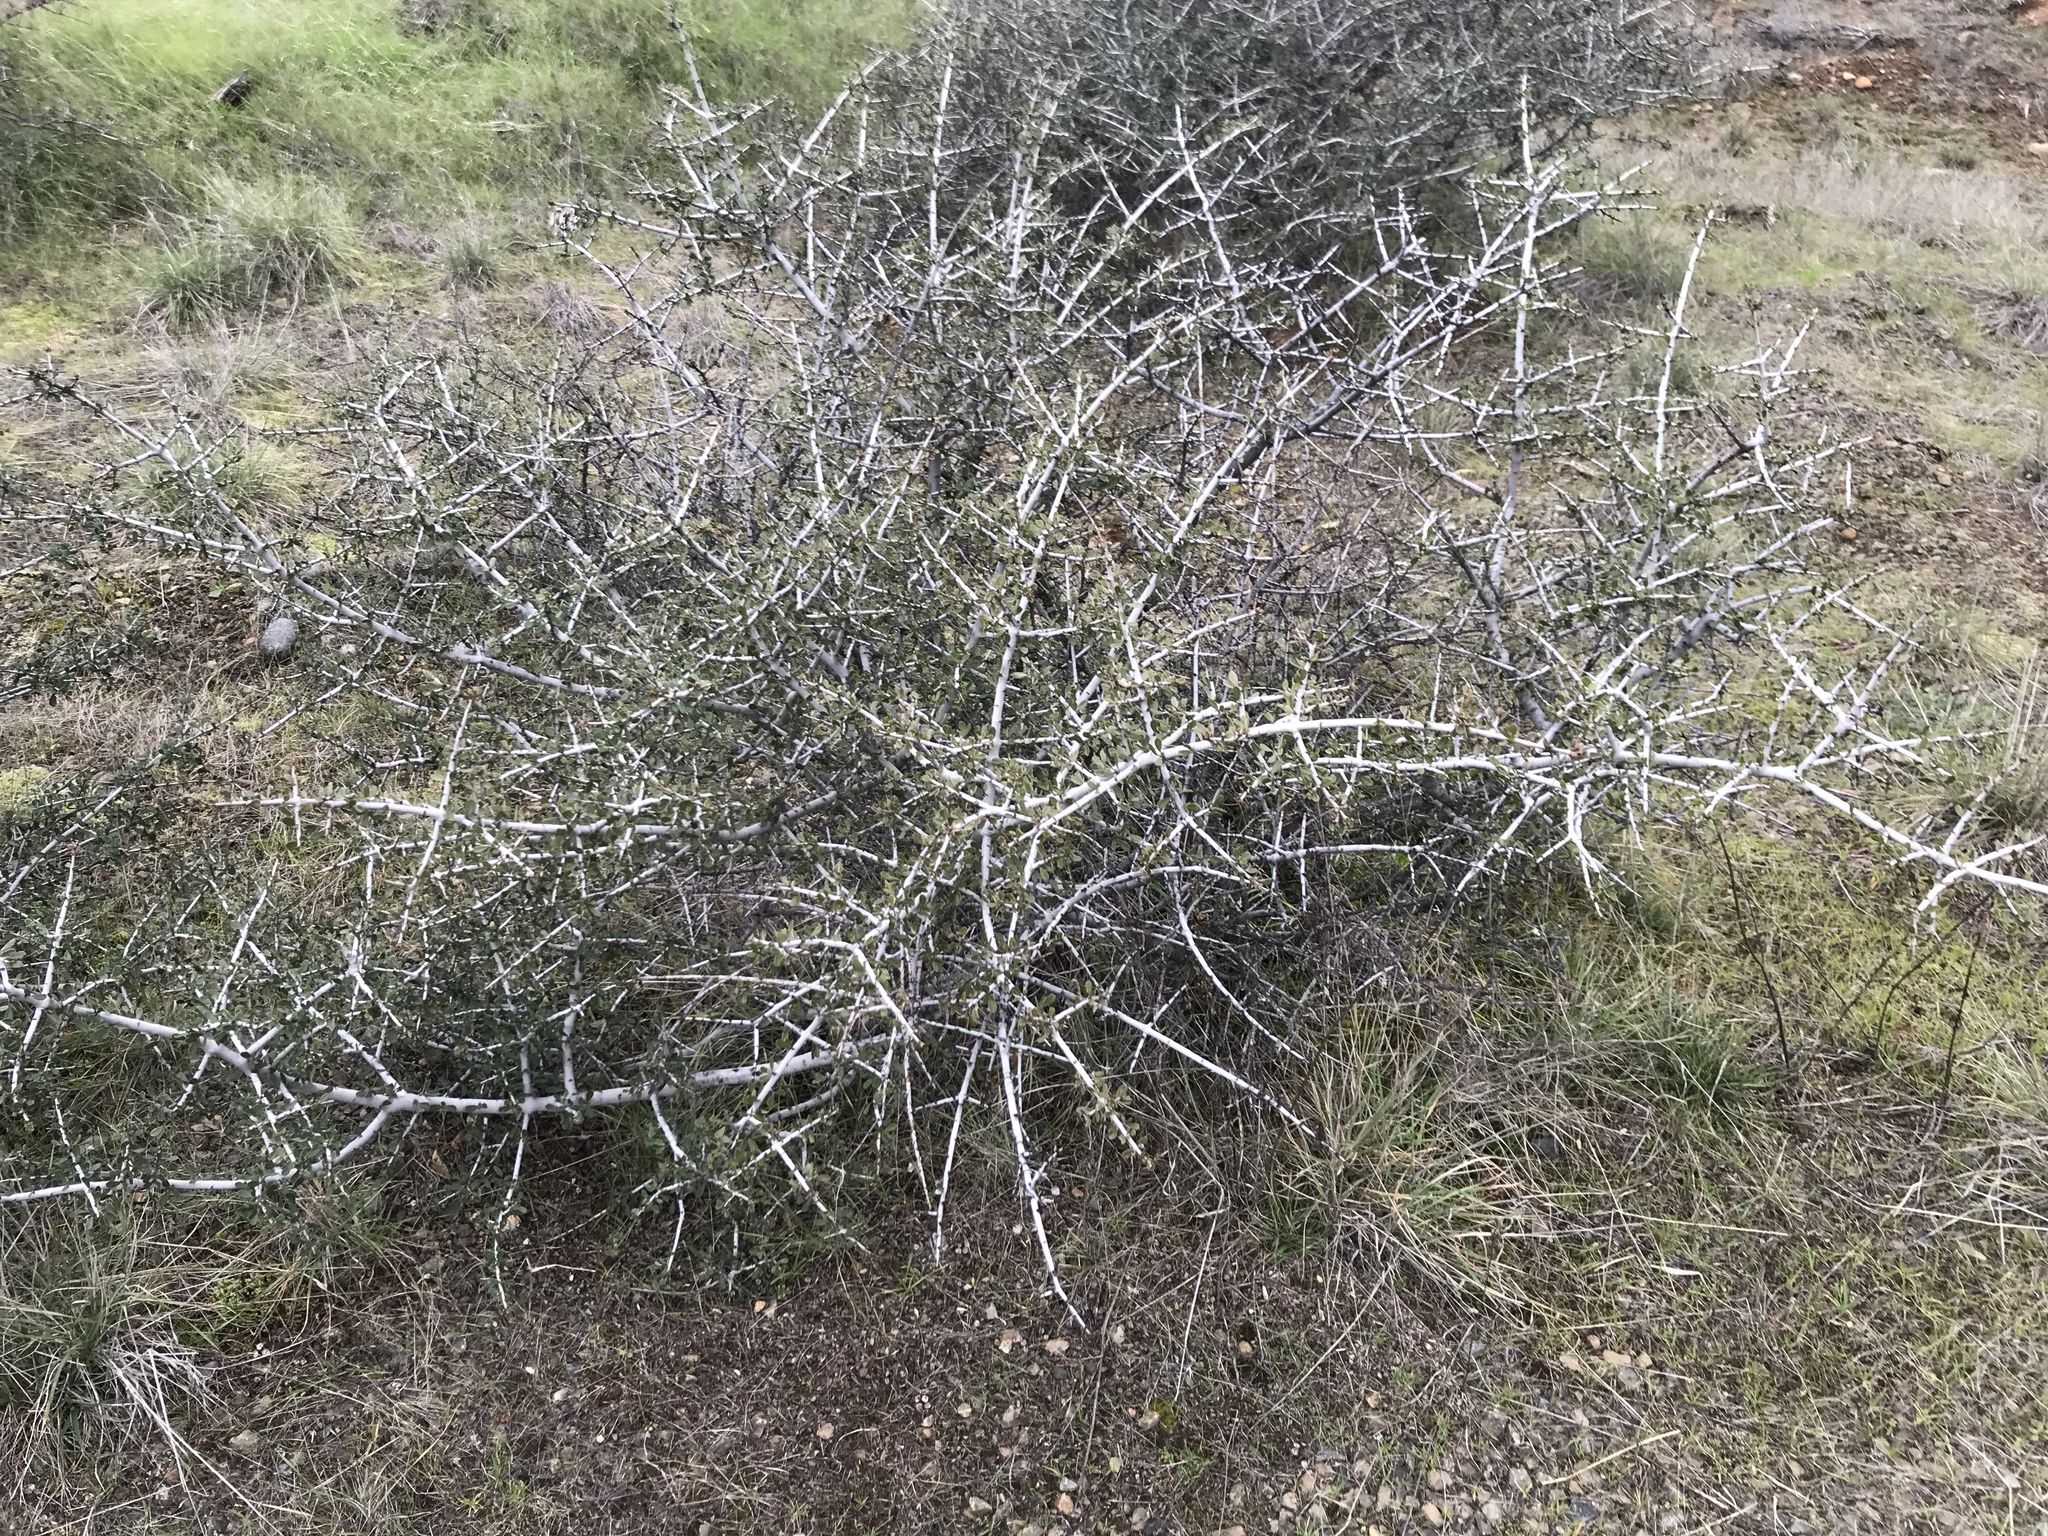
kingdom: Plantae
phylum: Tracheophyta
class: Magnoliopsida
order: Rosales
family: Rhamnaceae
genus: Ceanothus
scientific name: Ceanothus cuneatus
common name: Cuneate ceanothus
